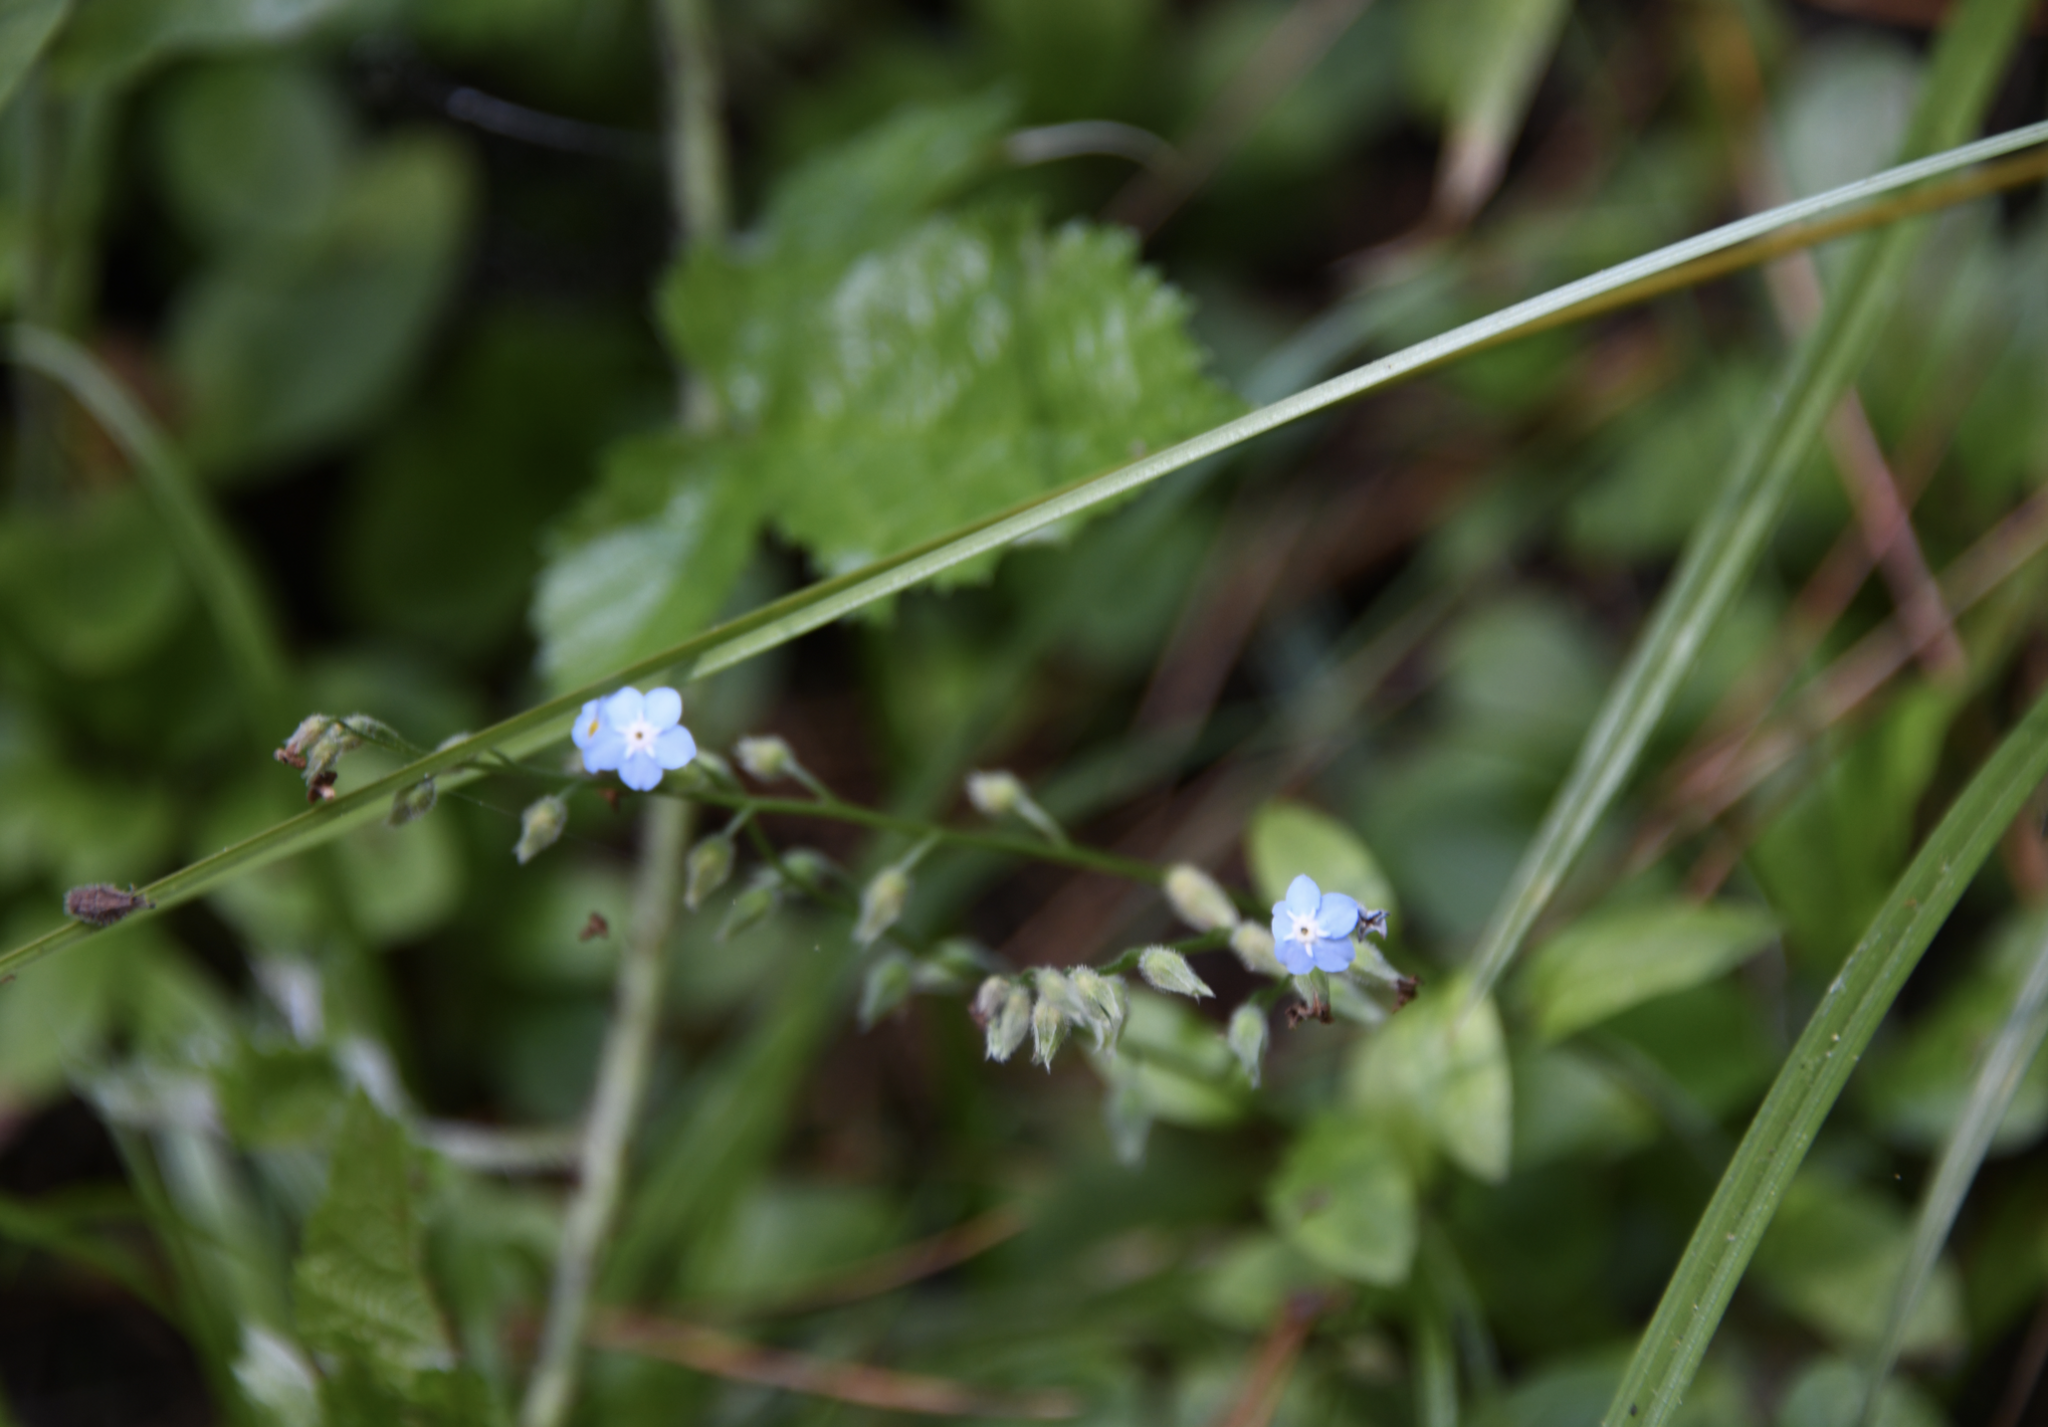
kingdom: Plantae
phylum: Tracheophyta
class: Magnoliopsida
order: Boraginales
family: Boraginaceae
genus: Myosotis
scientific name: Myosotis latifolia
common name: Broadleaf forget-me-not
